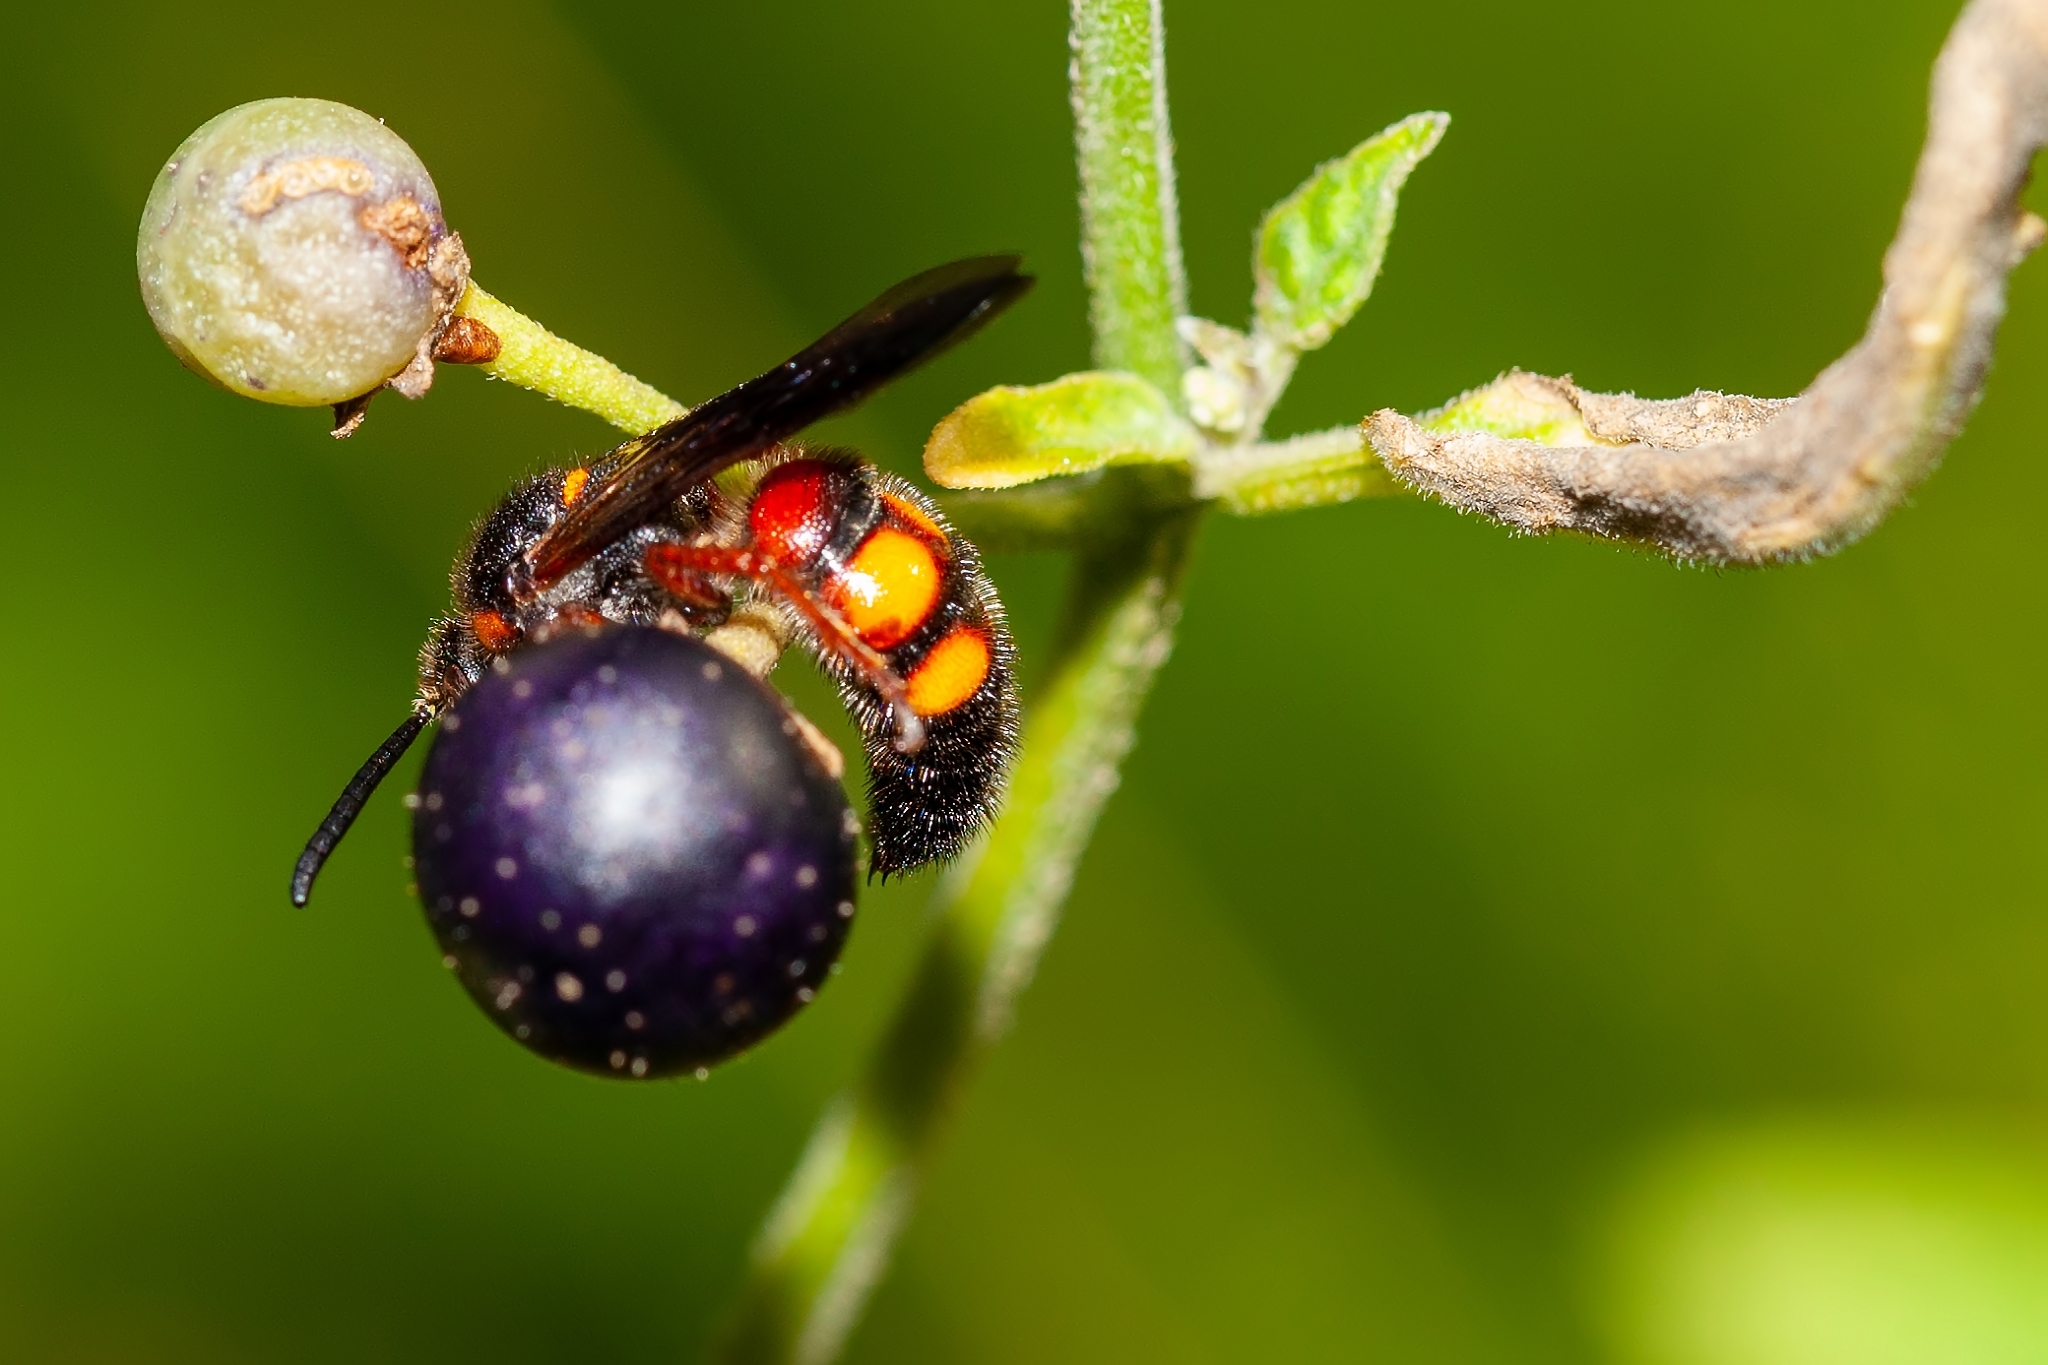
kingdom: Animalia
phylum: Arthropoda
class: Insecta
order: Hymenoptera
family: Scoliidae
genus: Scolia
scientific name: Scolia nobilitata
